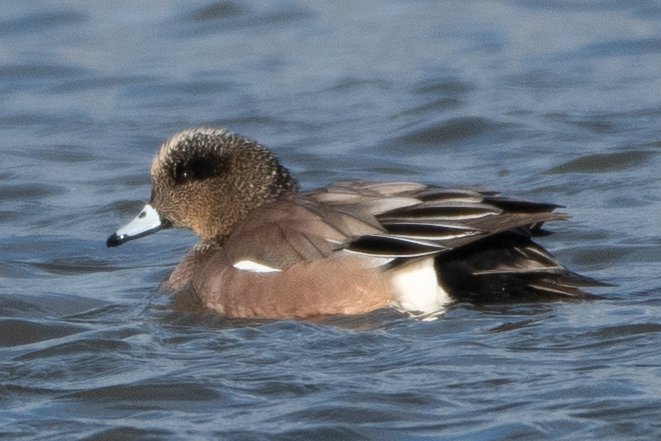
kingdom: Animalia
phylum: Chordata
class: Aves
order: Anseriformes
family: Anatidae
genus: Mareca
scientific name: Mareca americana
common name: American wigeon
